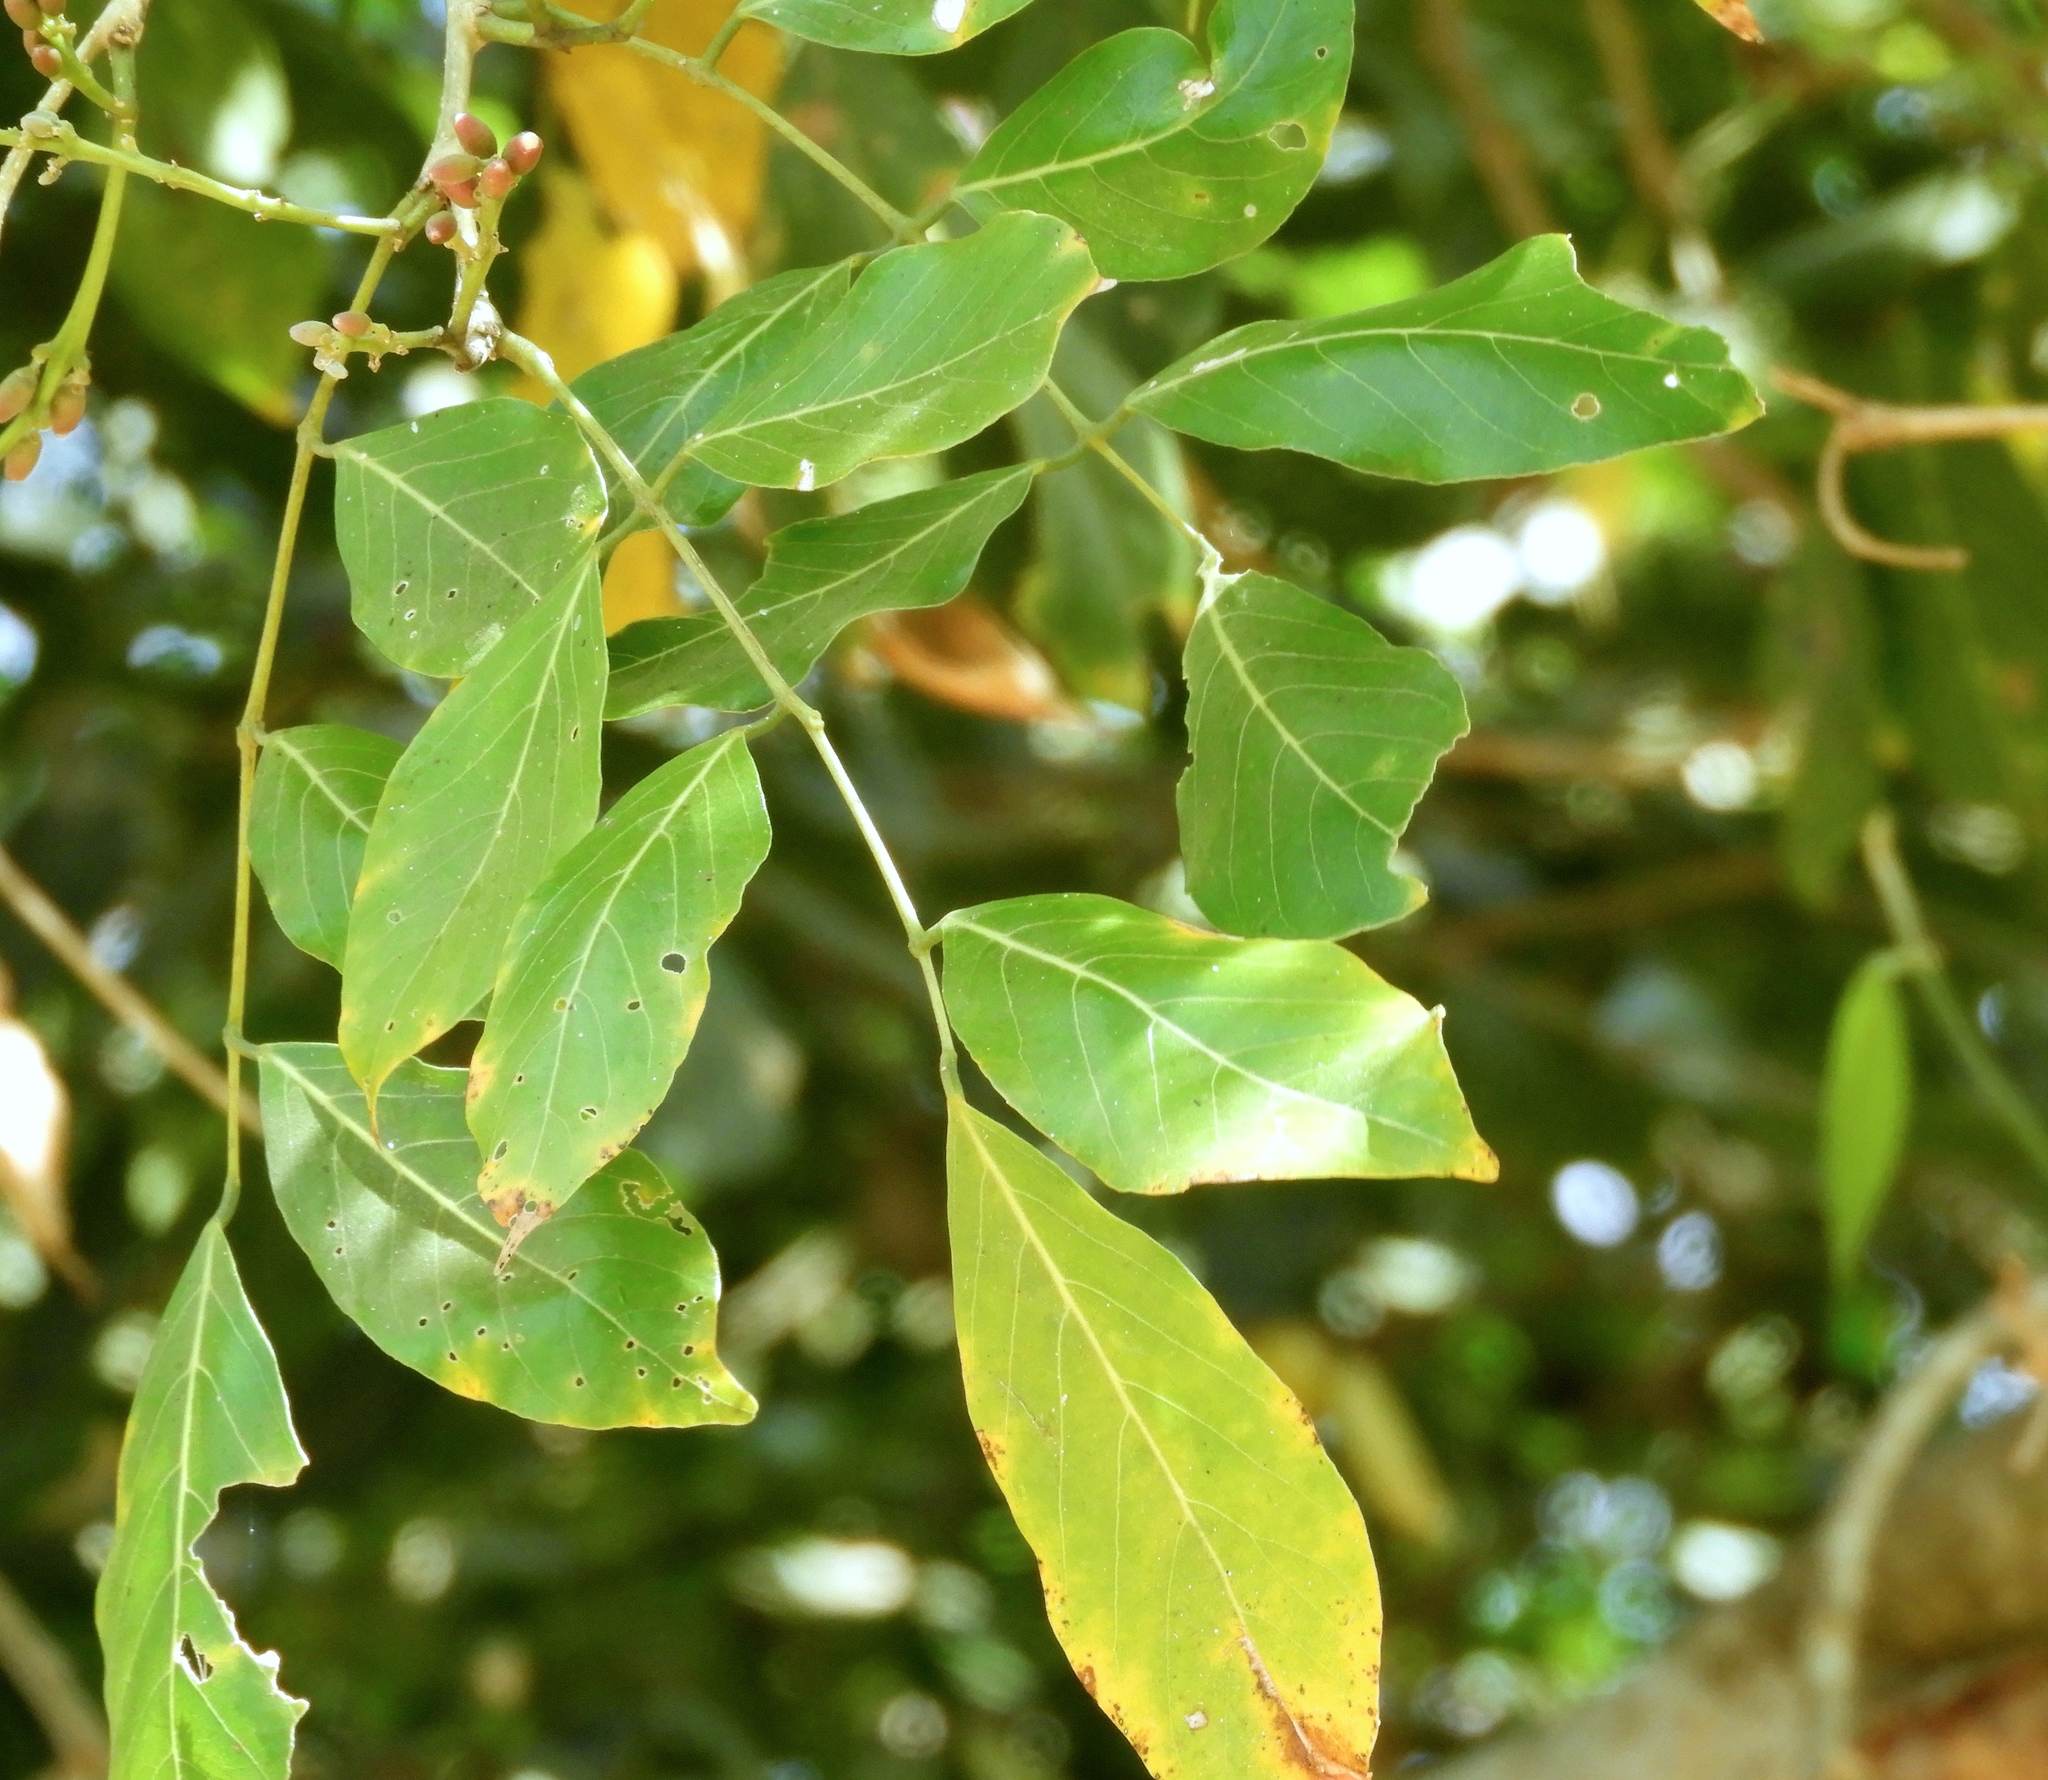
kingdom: Plantae
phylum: Tracheophyta
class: Magnoliopsida
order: Fabales
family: Fabaceae
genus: Lonchocarpus
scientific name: Lonchocarpus guatemalensis
